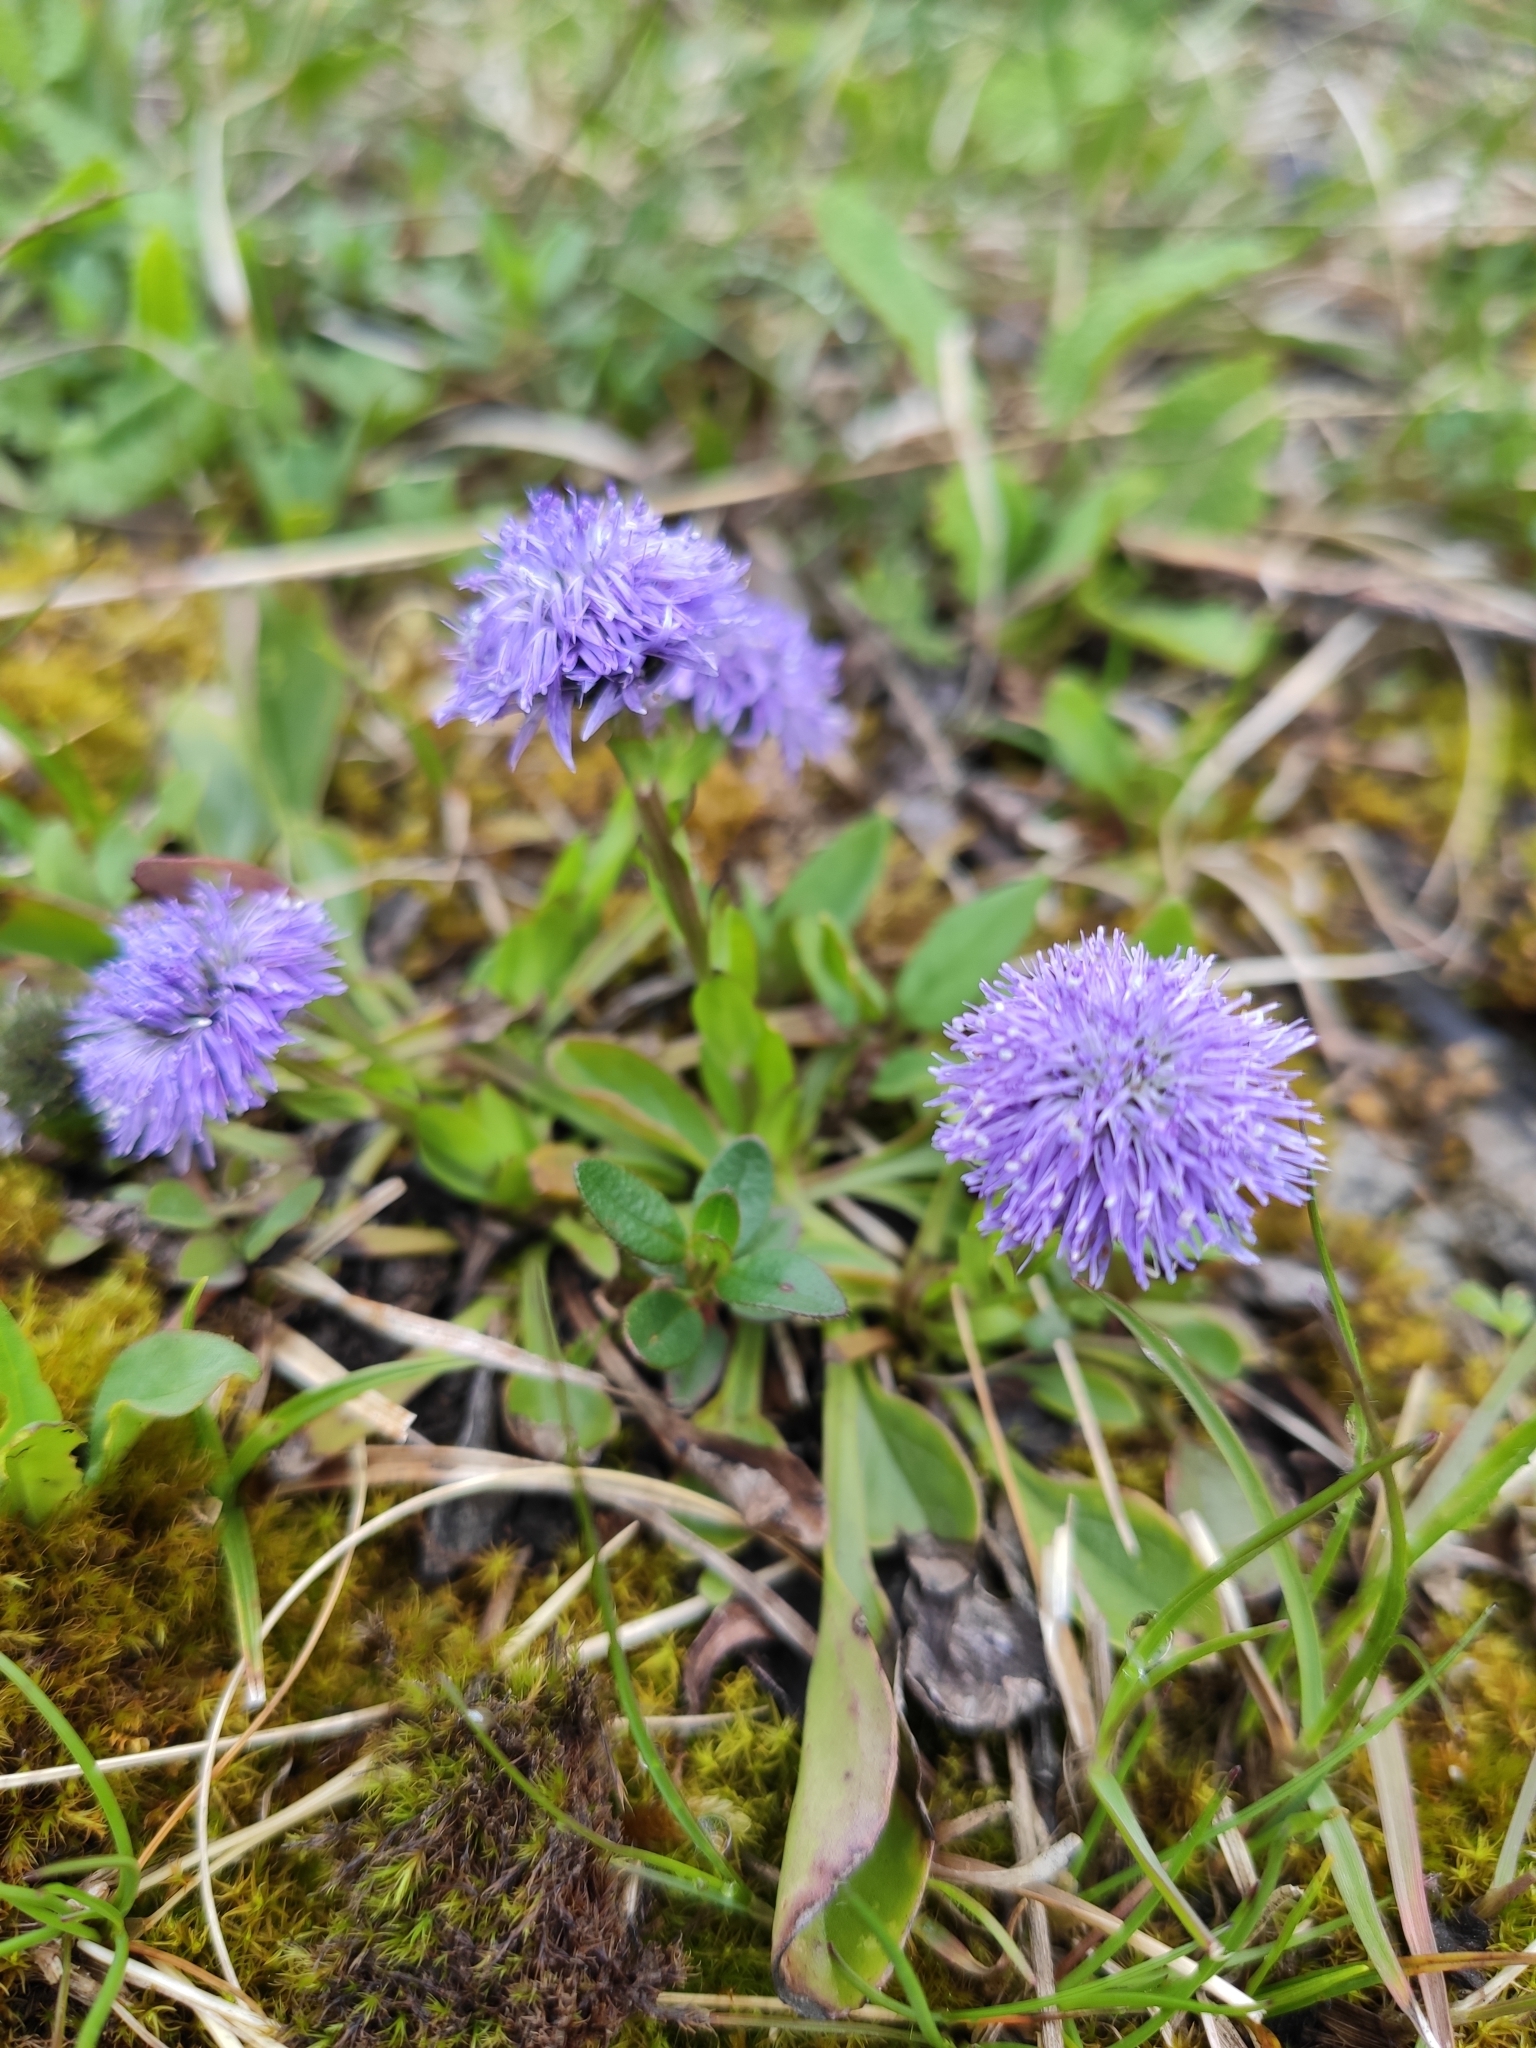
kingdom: Plantae
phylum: Tracheophyta
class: Magnoliopsida
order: Lamiales
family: Plantaginaceae
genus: Globularia
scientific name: Globularia bisnagarica
